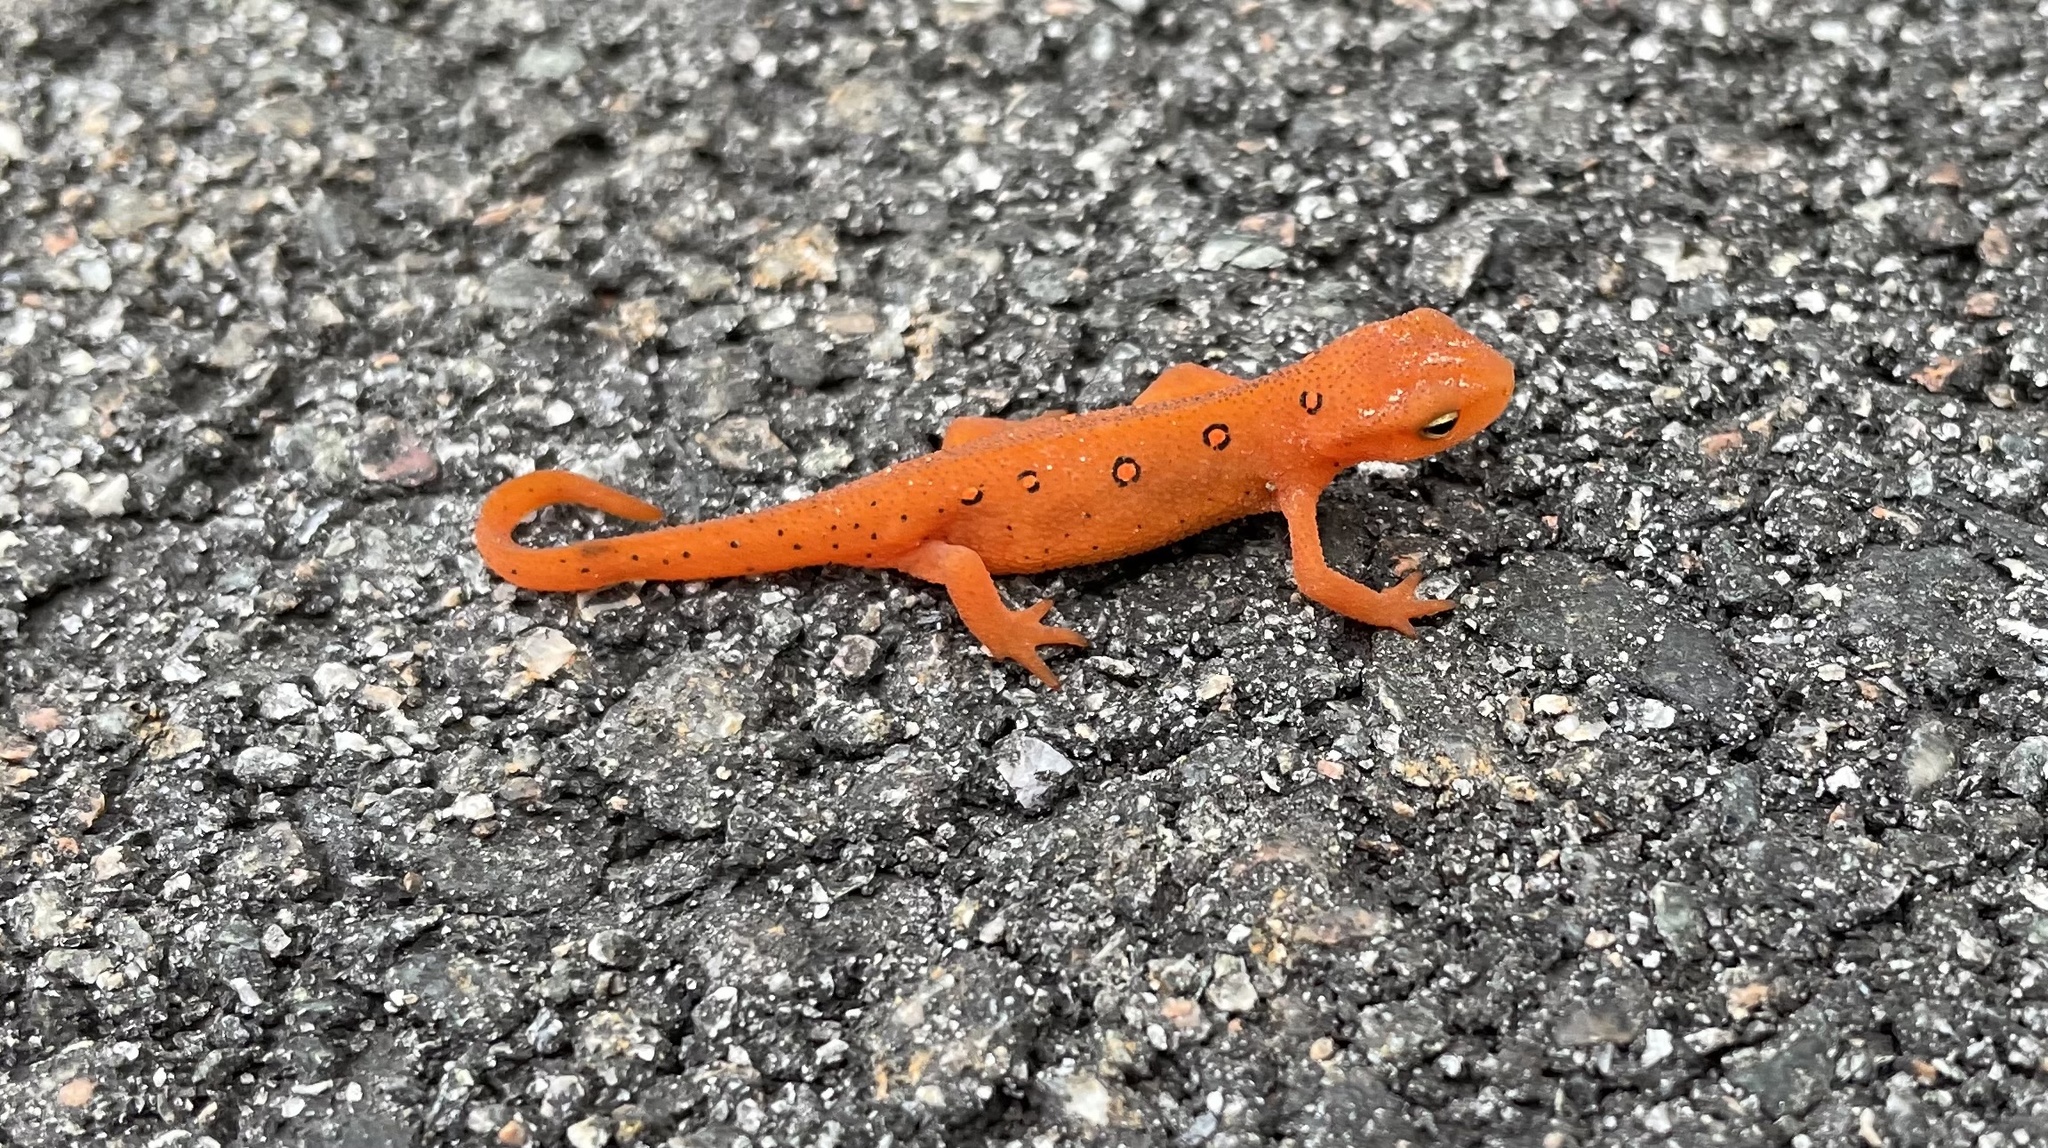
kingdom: Animalia
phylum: Chordata
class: Amphibia
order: Caudata
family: Salamandridae
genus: Notophthalmus
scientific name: Notophthalmus viridescens
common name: Eastern newt
